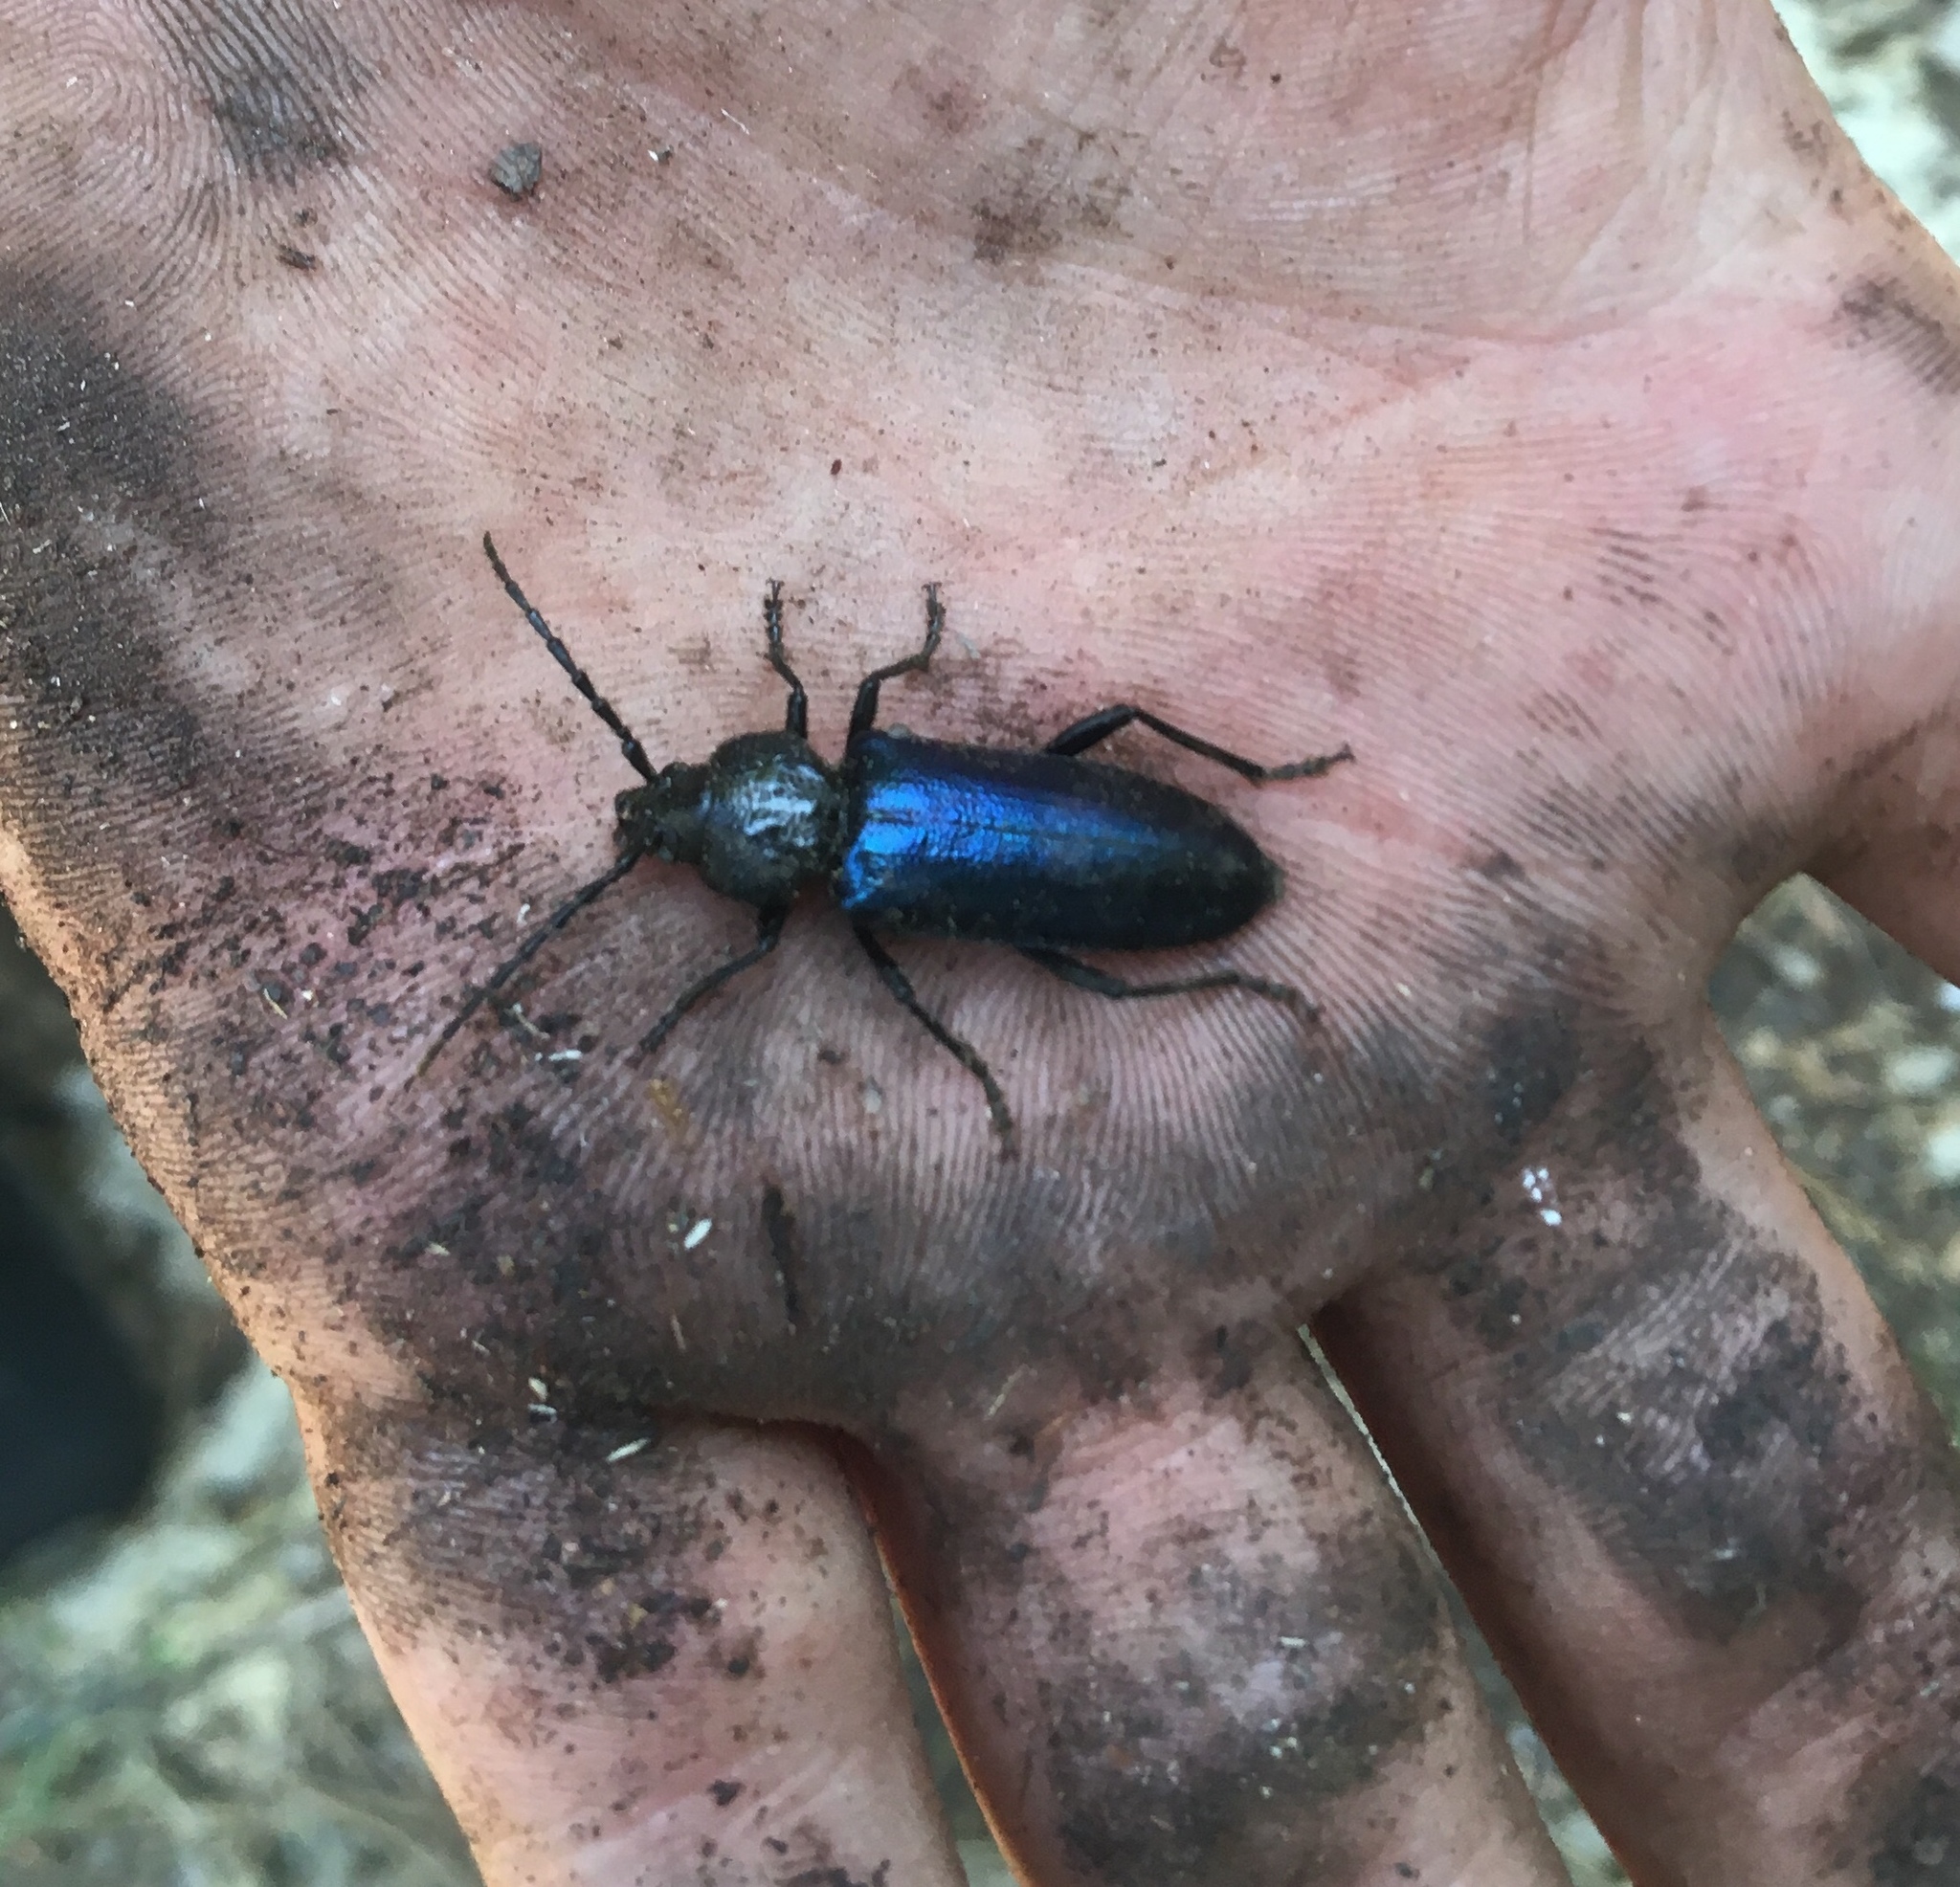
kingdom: Animalia
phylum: Arthropoda
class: Insecta
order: Coleoptera
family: Cerambycidae
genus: Semanotus
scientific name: Semanotus amethystinus
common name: Long-horned beetle
